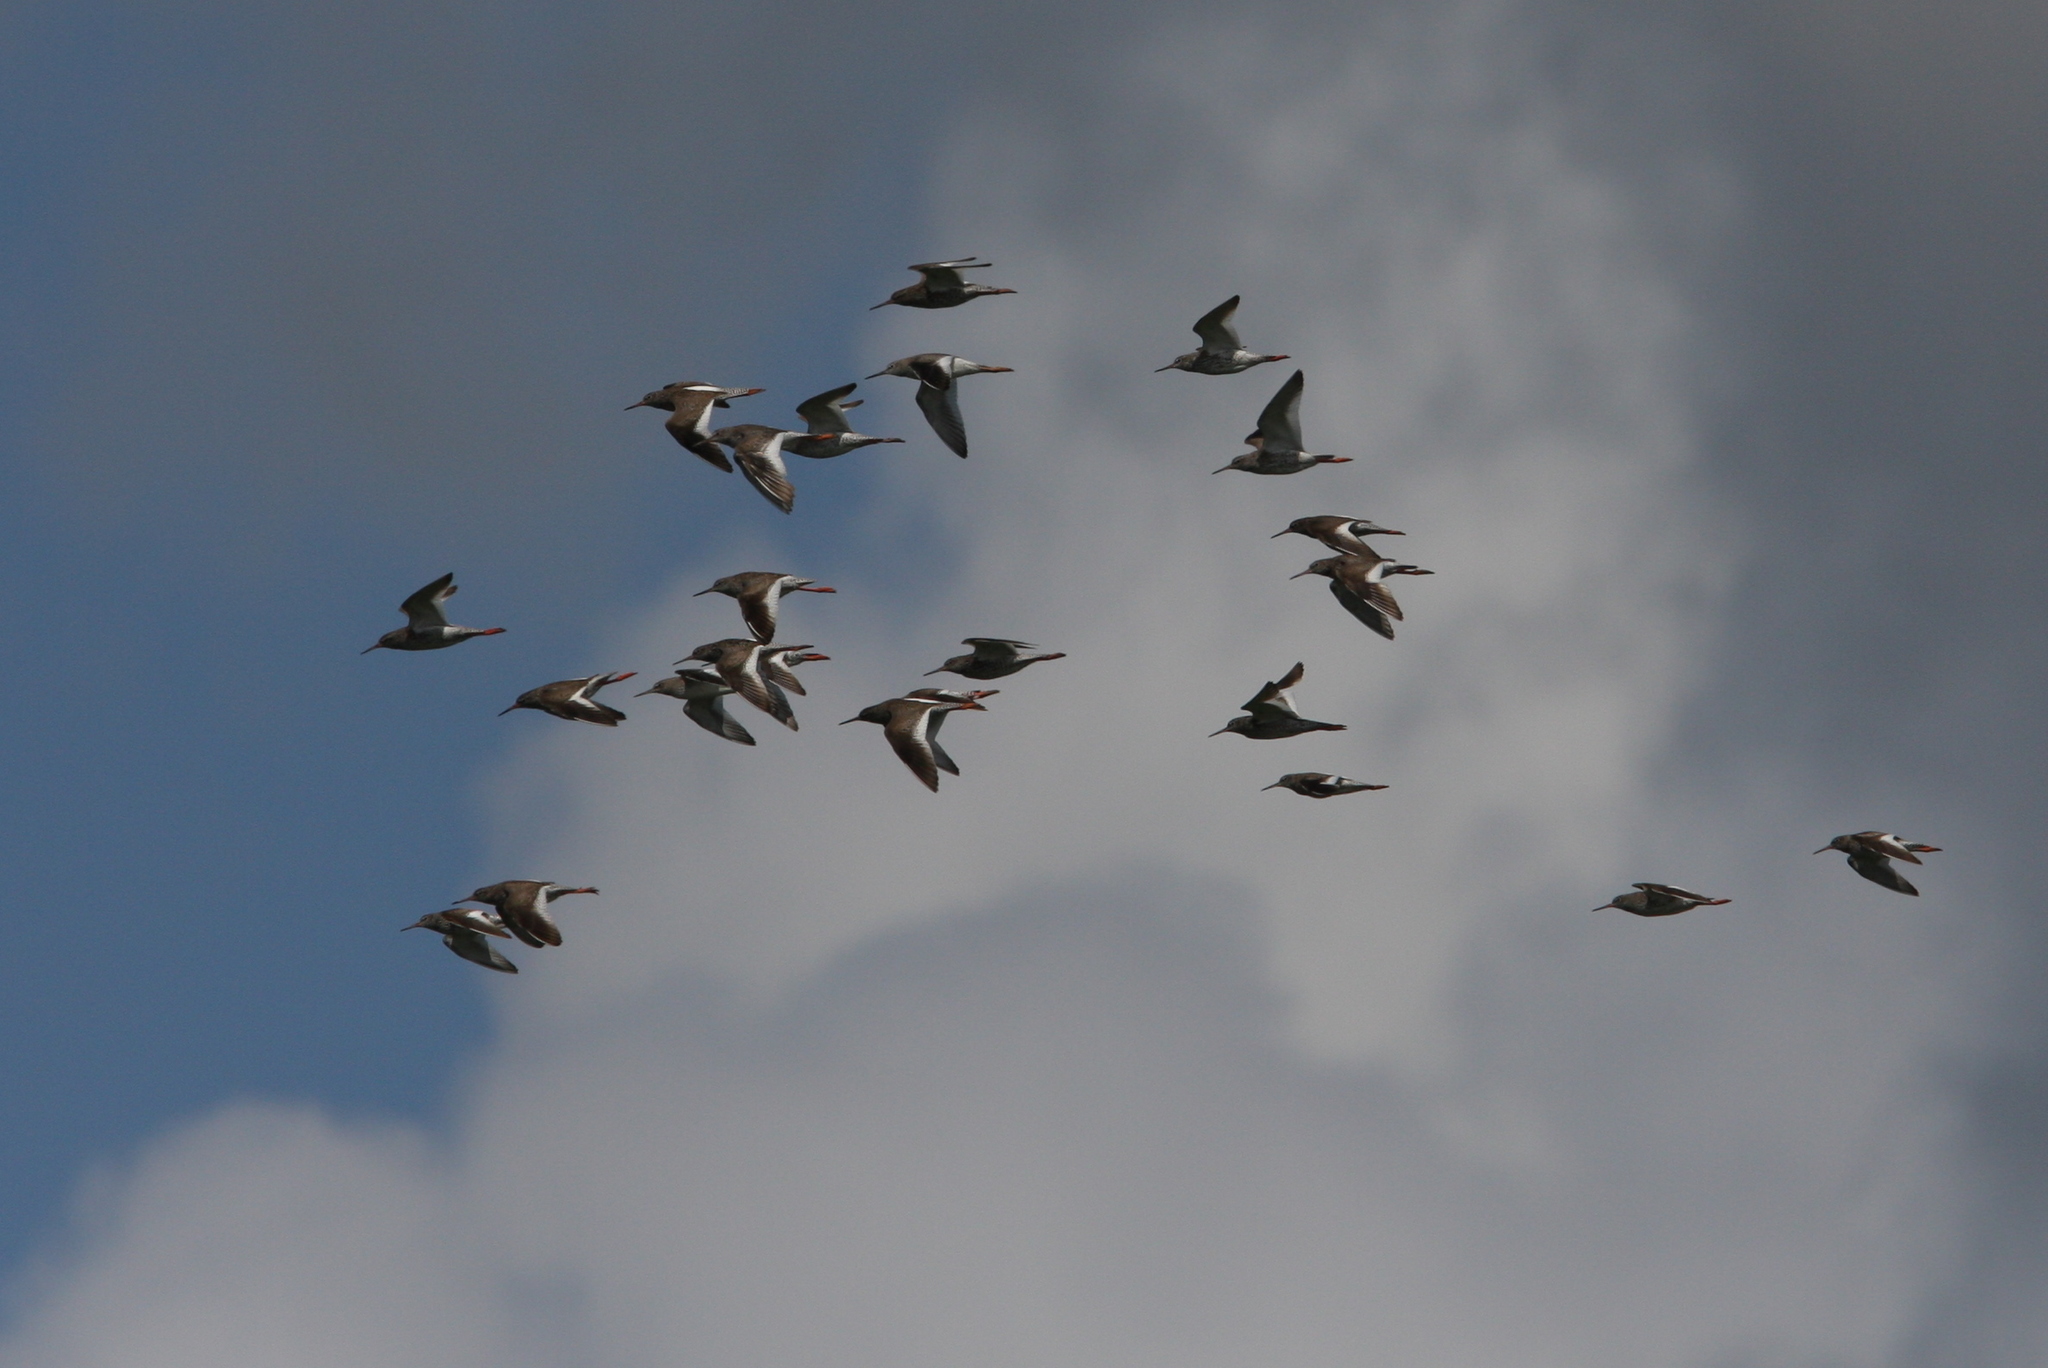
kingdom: Animalia
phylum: Chordata
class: Aves
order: Charadriiformes
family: Scolopacidae
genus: Tringa
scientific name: Tringa totanus
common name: Common redshank
